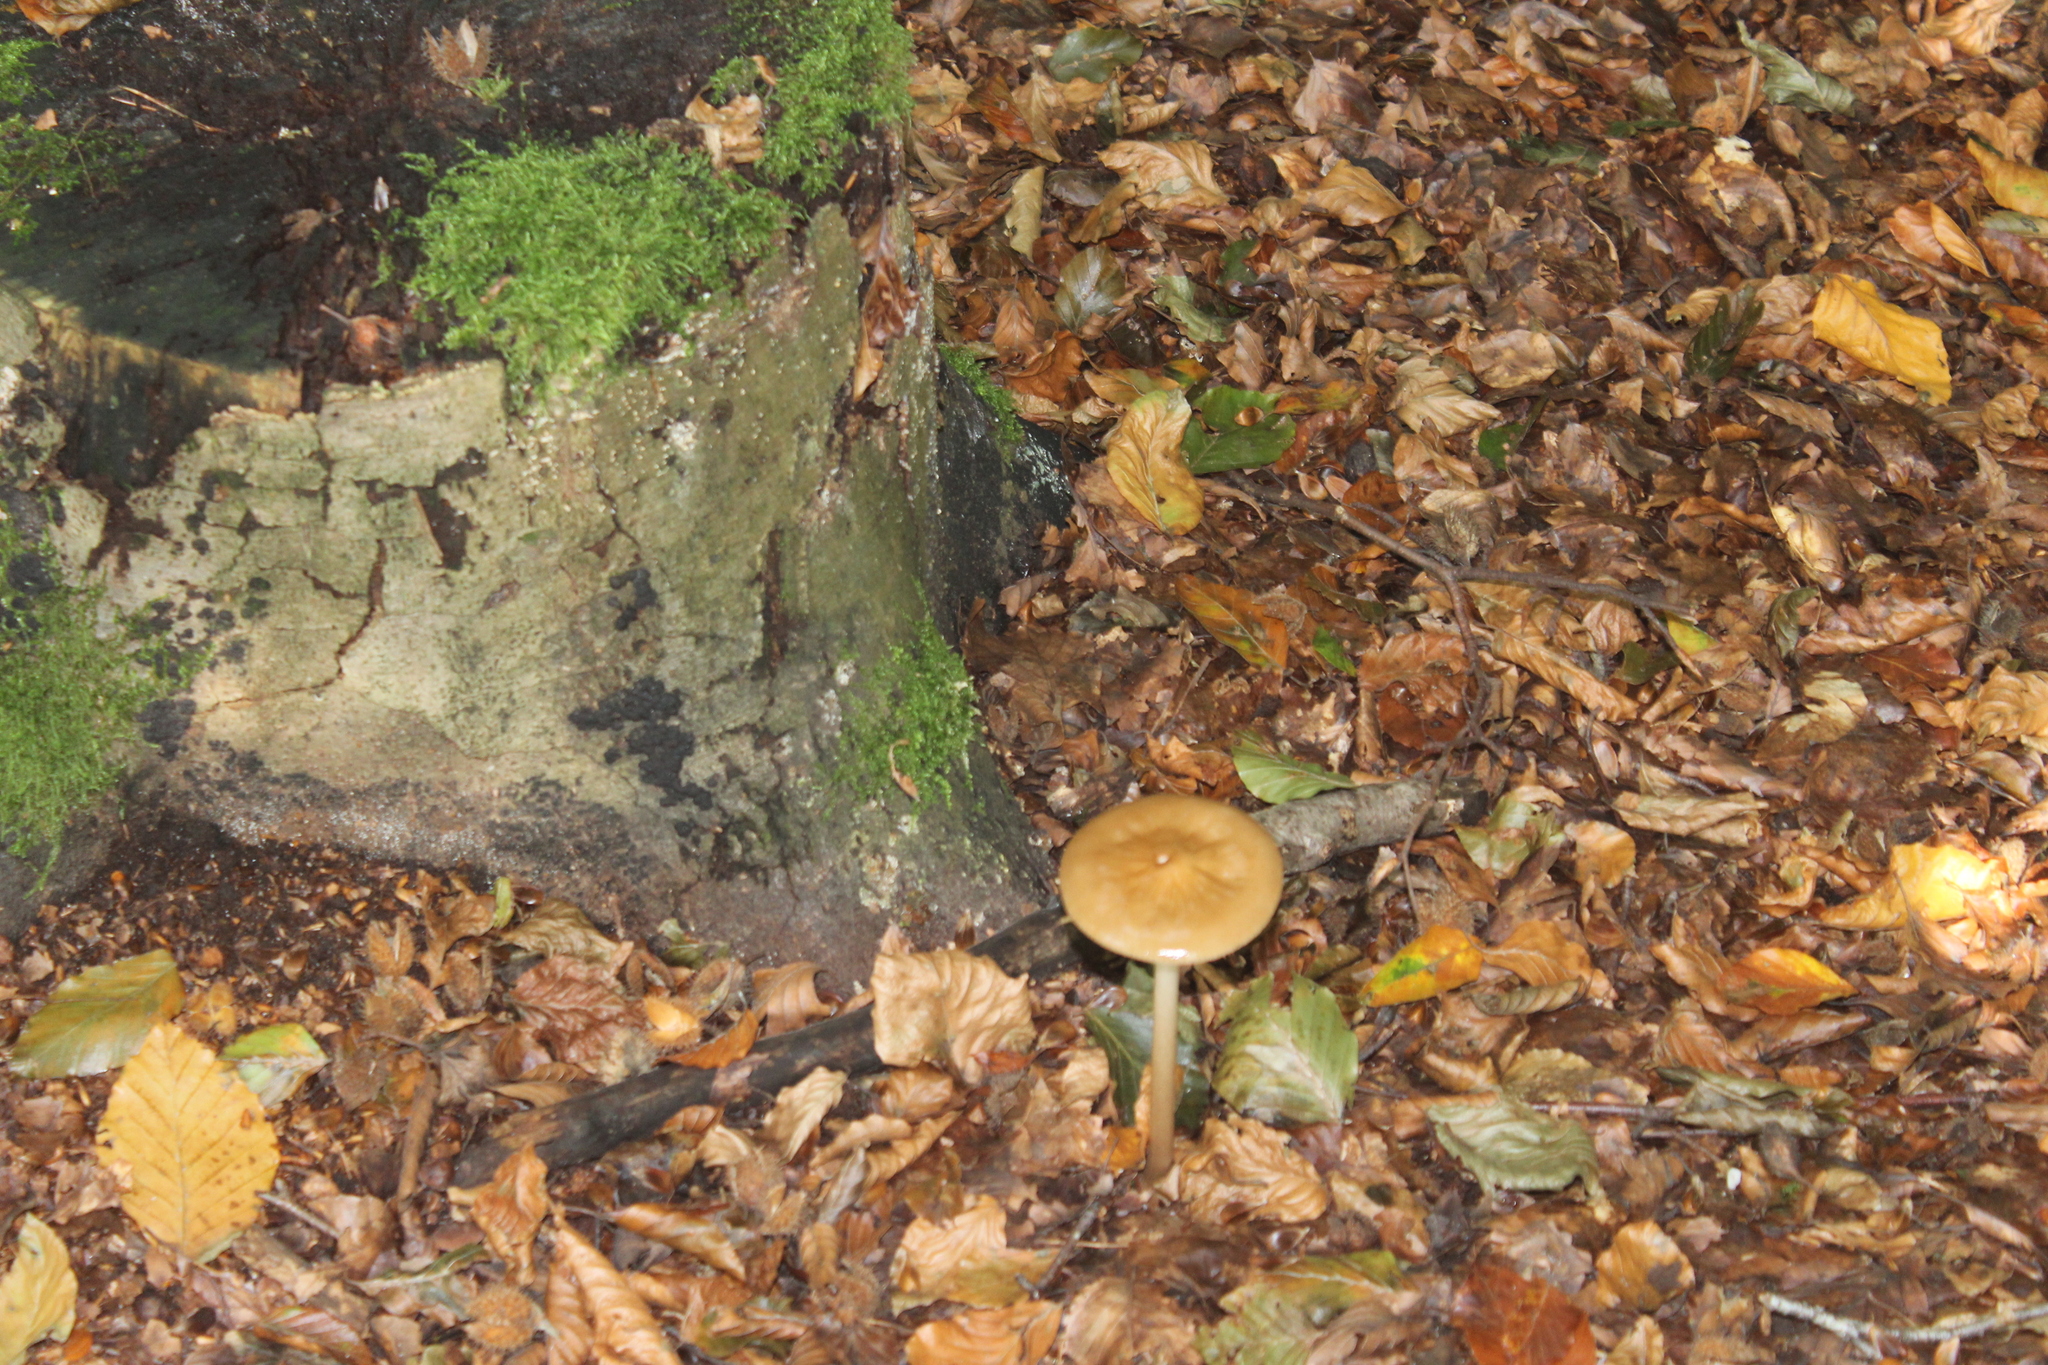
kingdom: Fungi
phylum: Basidiomycota
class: Agaricomycetes
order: Agaricales
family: Physalacriaceae
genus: Hymenopellis
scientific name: Hymenopellis radicata
